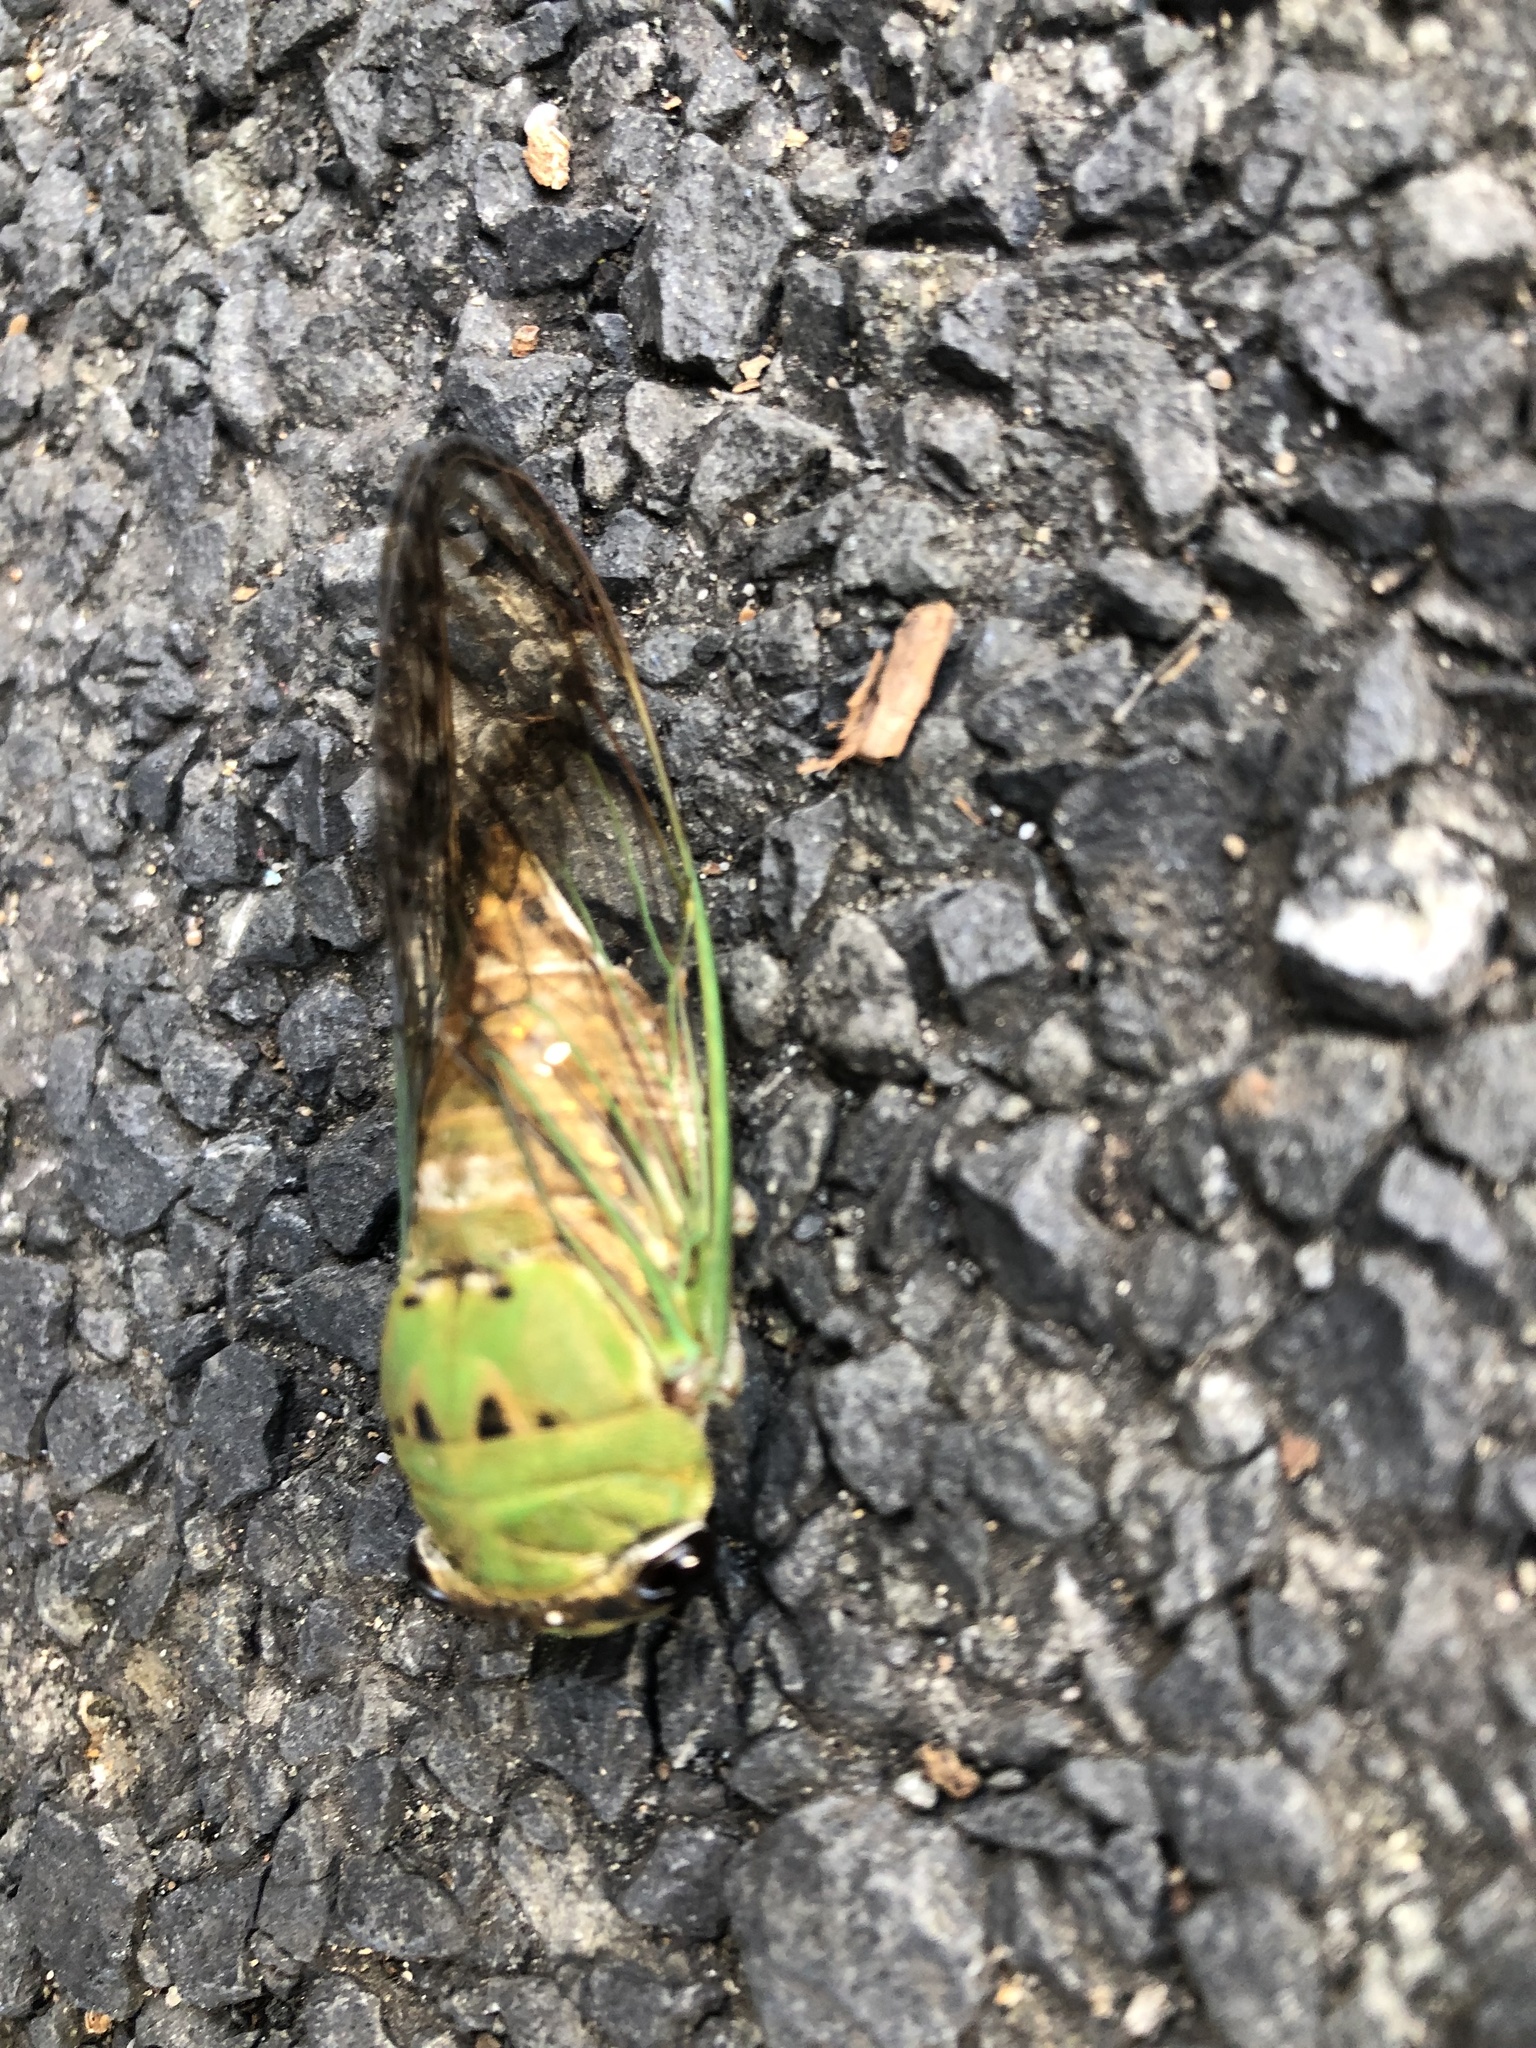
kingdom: Animalia
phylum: Arthropoda
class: Insecta
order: Hemiptera
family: Cicadidae
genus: Neotibicen
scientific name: Neotibicen superbus
